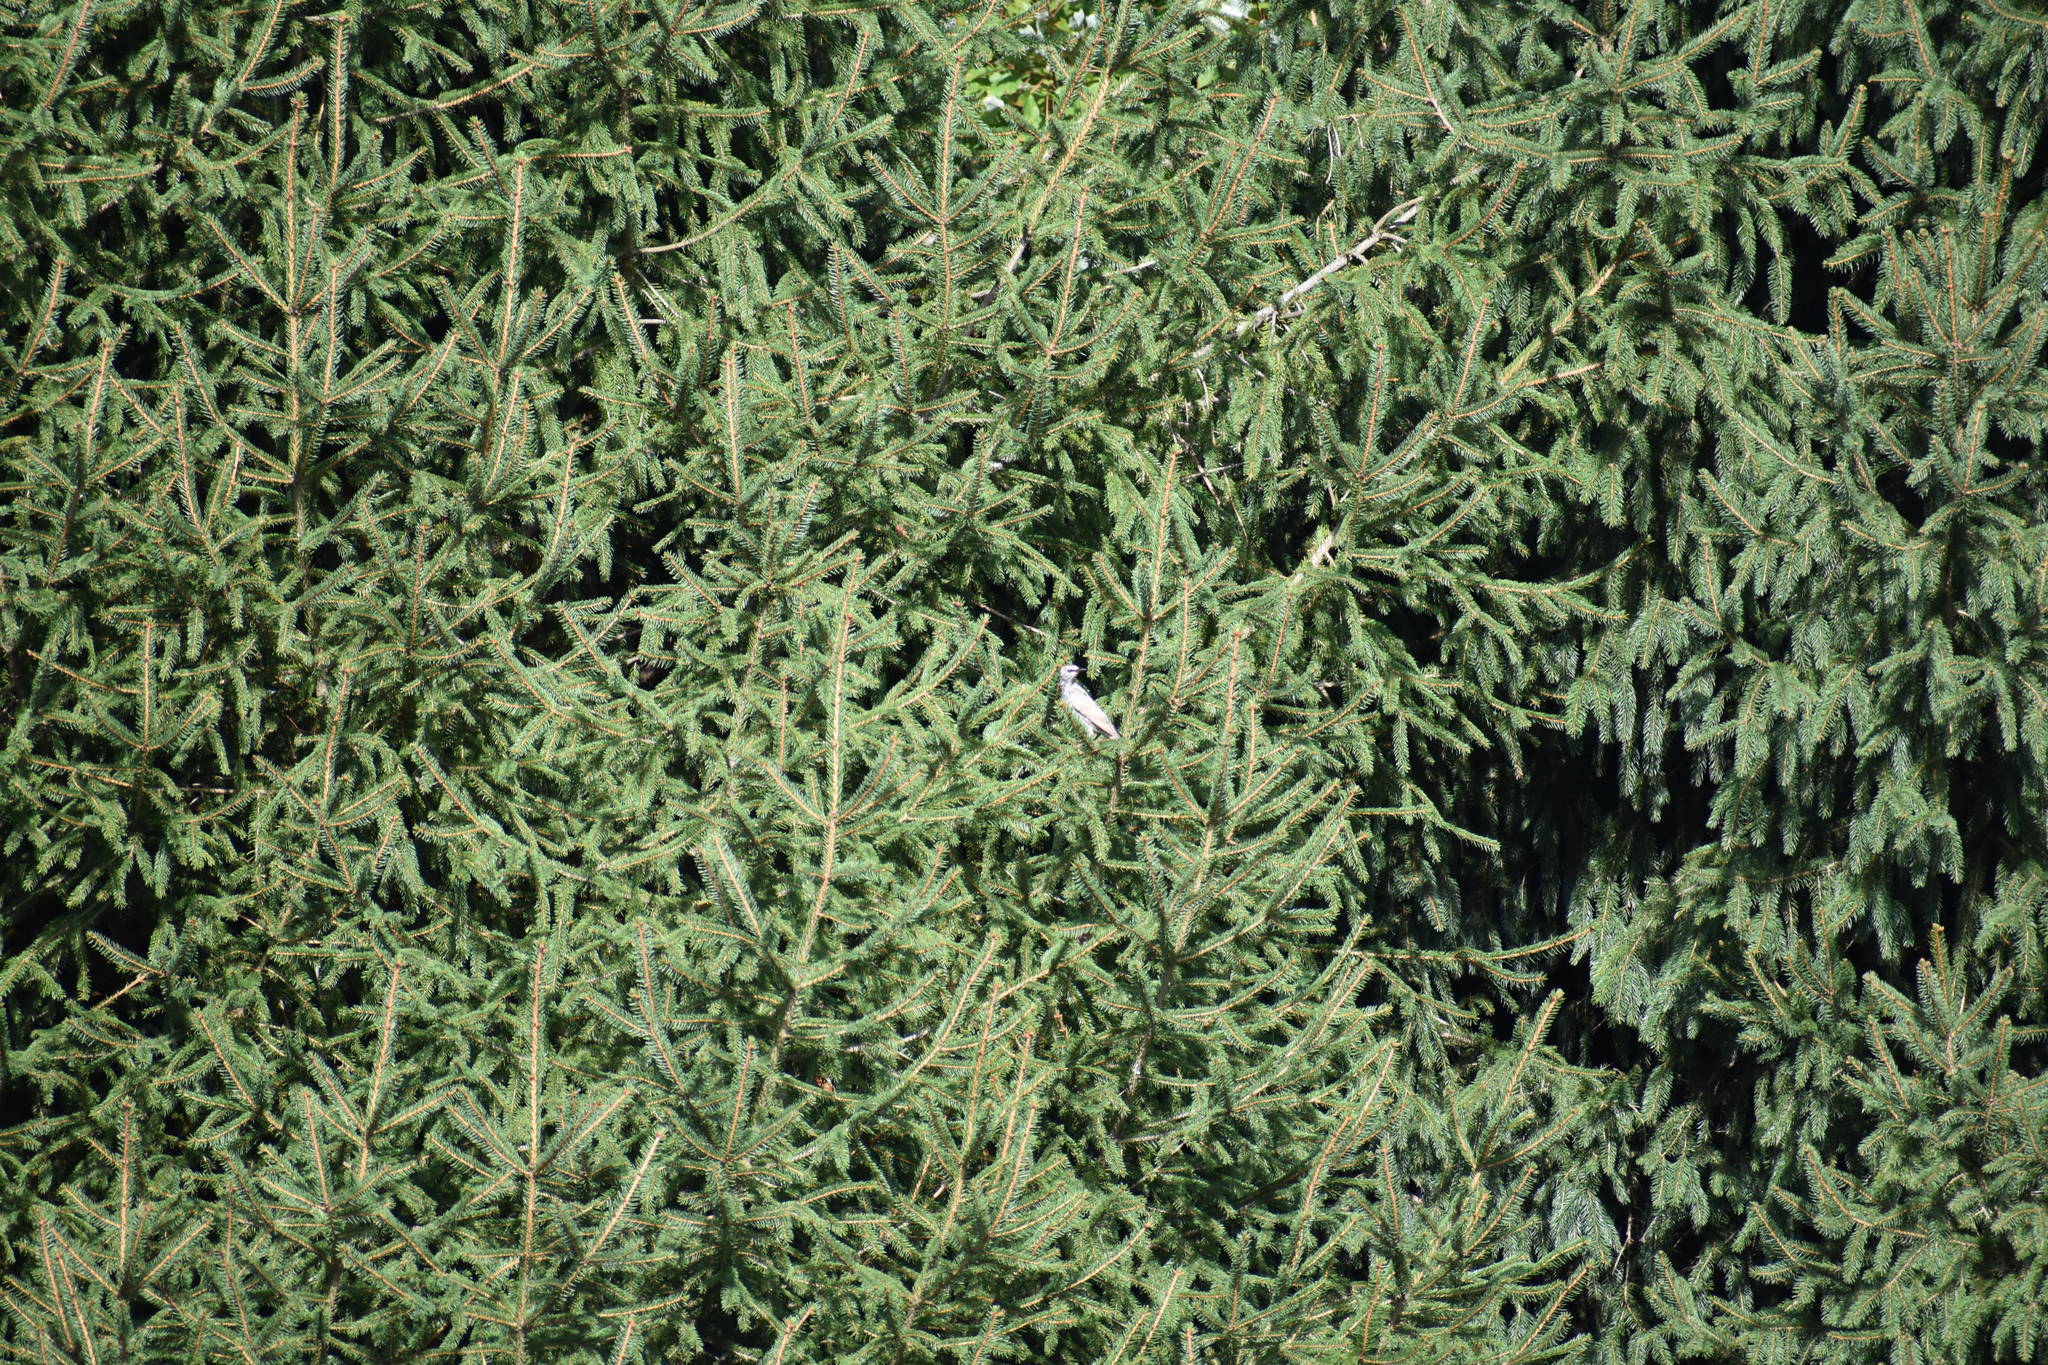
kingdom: Animalia
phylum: Chordata
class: Aves
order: Passeriformes
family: Sturnidae
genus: Sturnus
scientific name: Sturnus vulgaris
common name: Common starling
